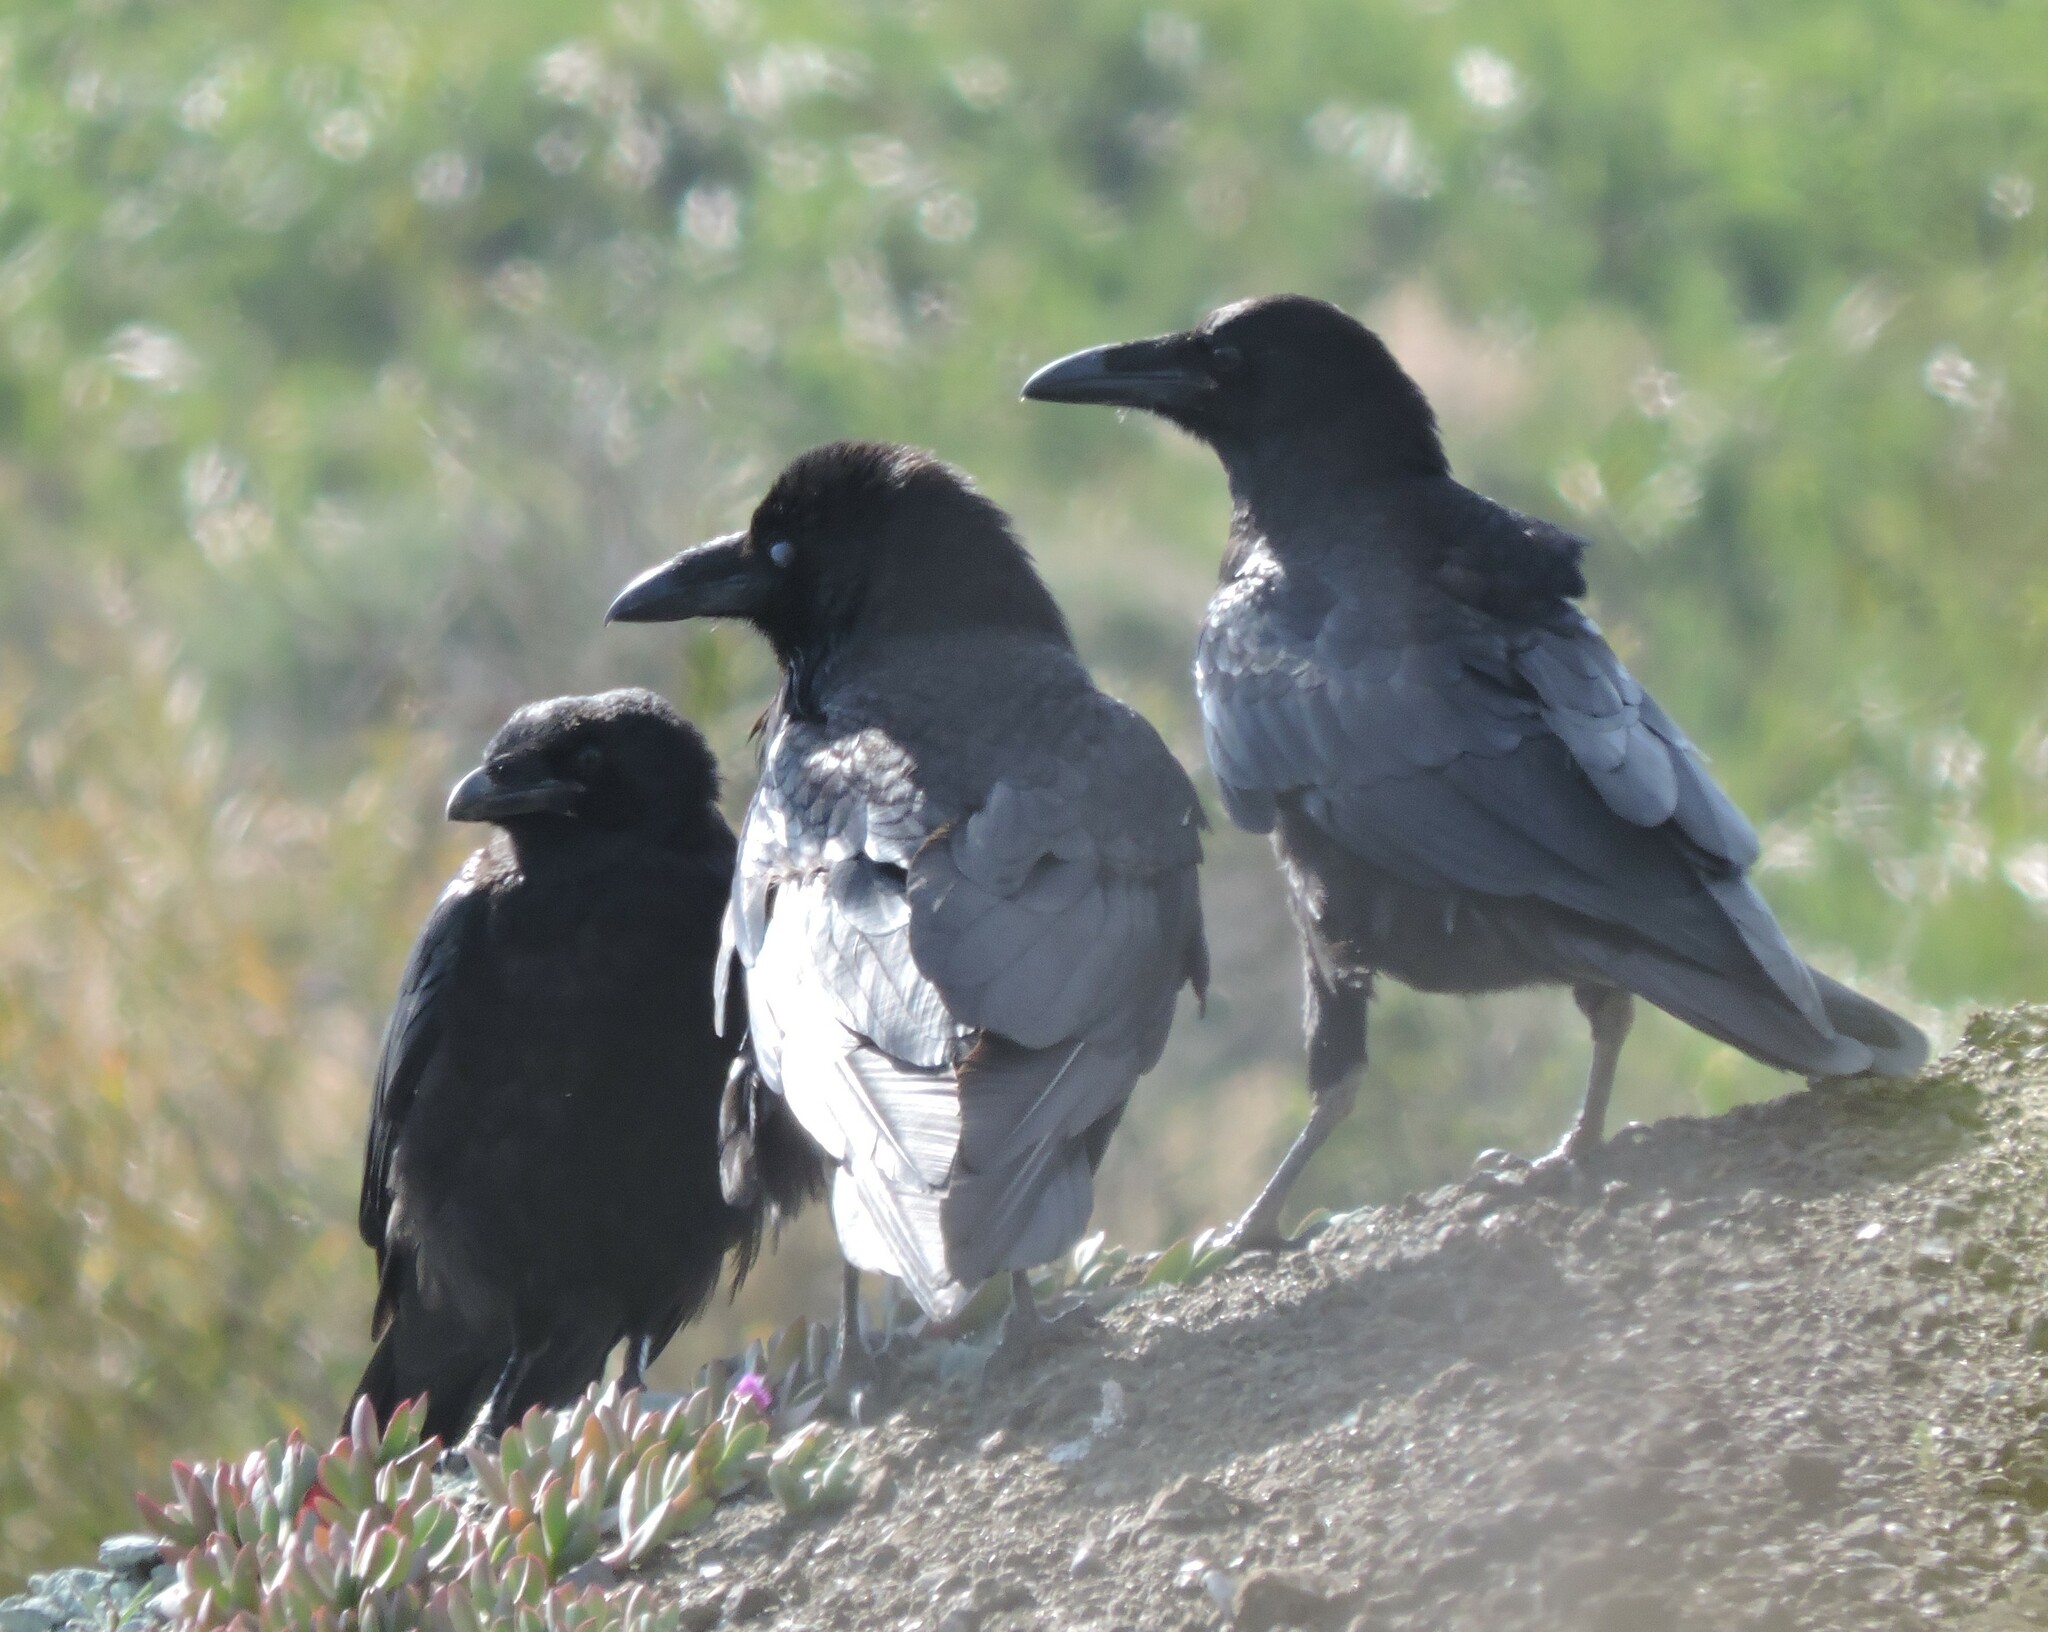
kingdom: Animalia
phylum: Chordata
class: Aves
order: Passeriformes
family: Corvidae
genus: Corvus
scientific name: Corvus corax
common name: Common raven
